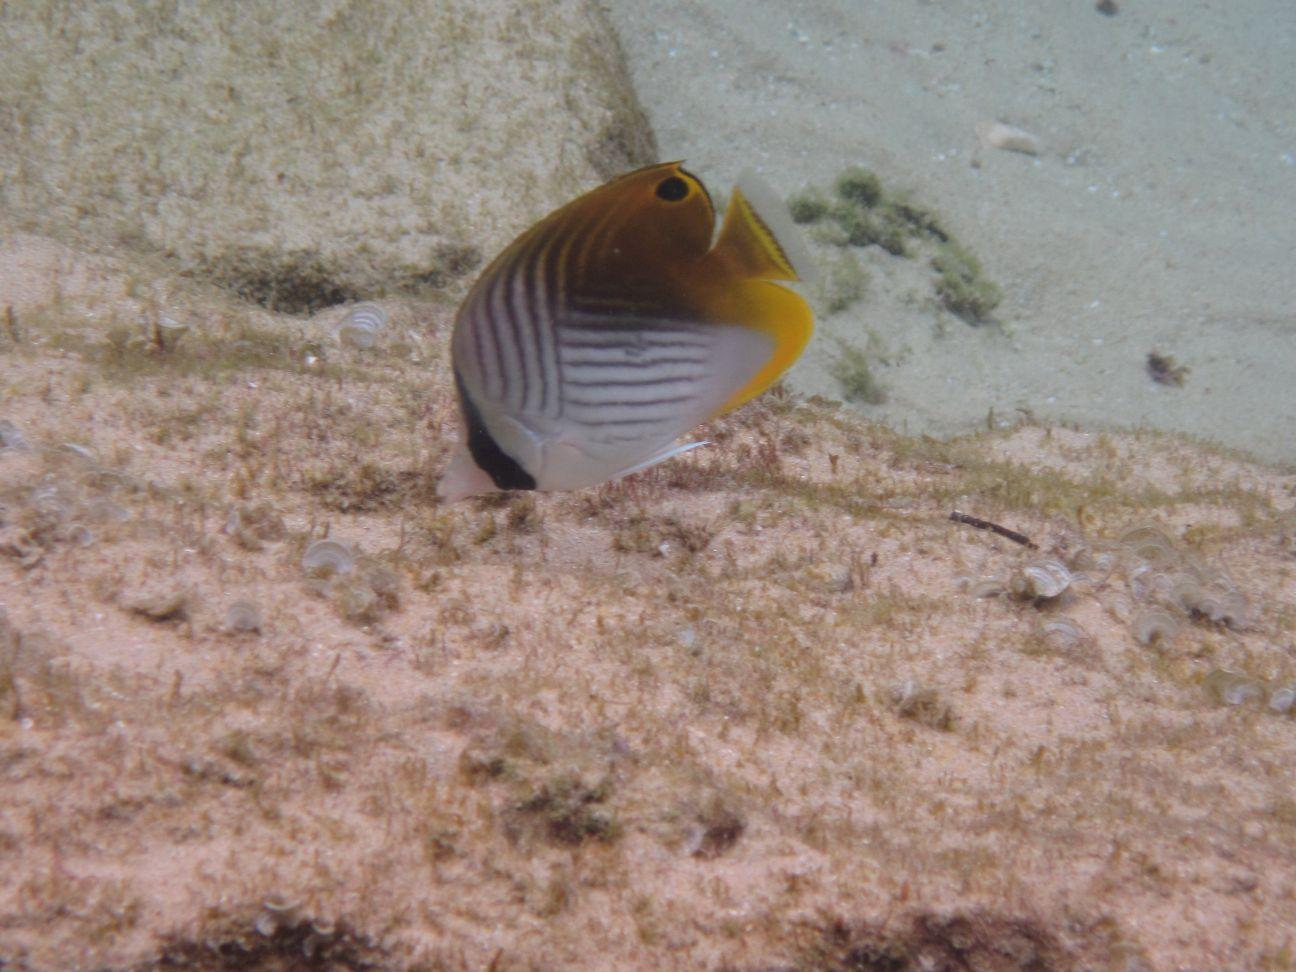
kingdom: Animalia
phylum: Chordata
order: Perciformes
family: Chaetodontidae
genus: Chaetodon
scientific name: Chaetodon auriga
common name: Threadfin butterflyfish
